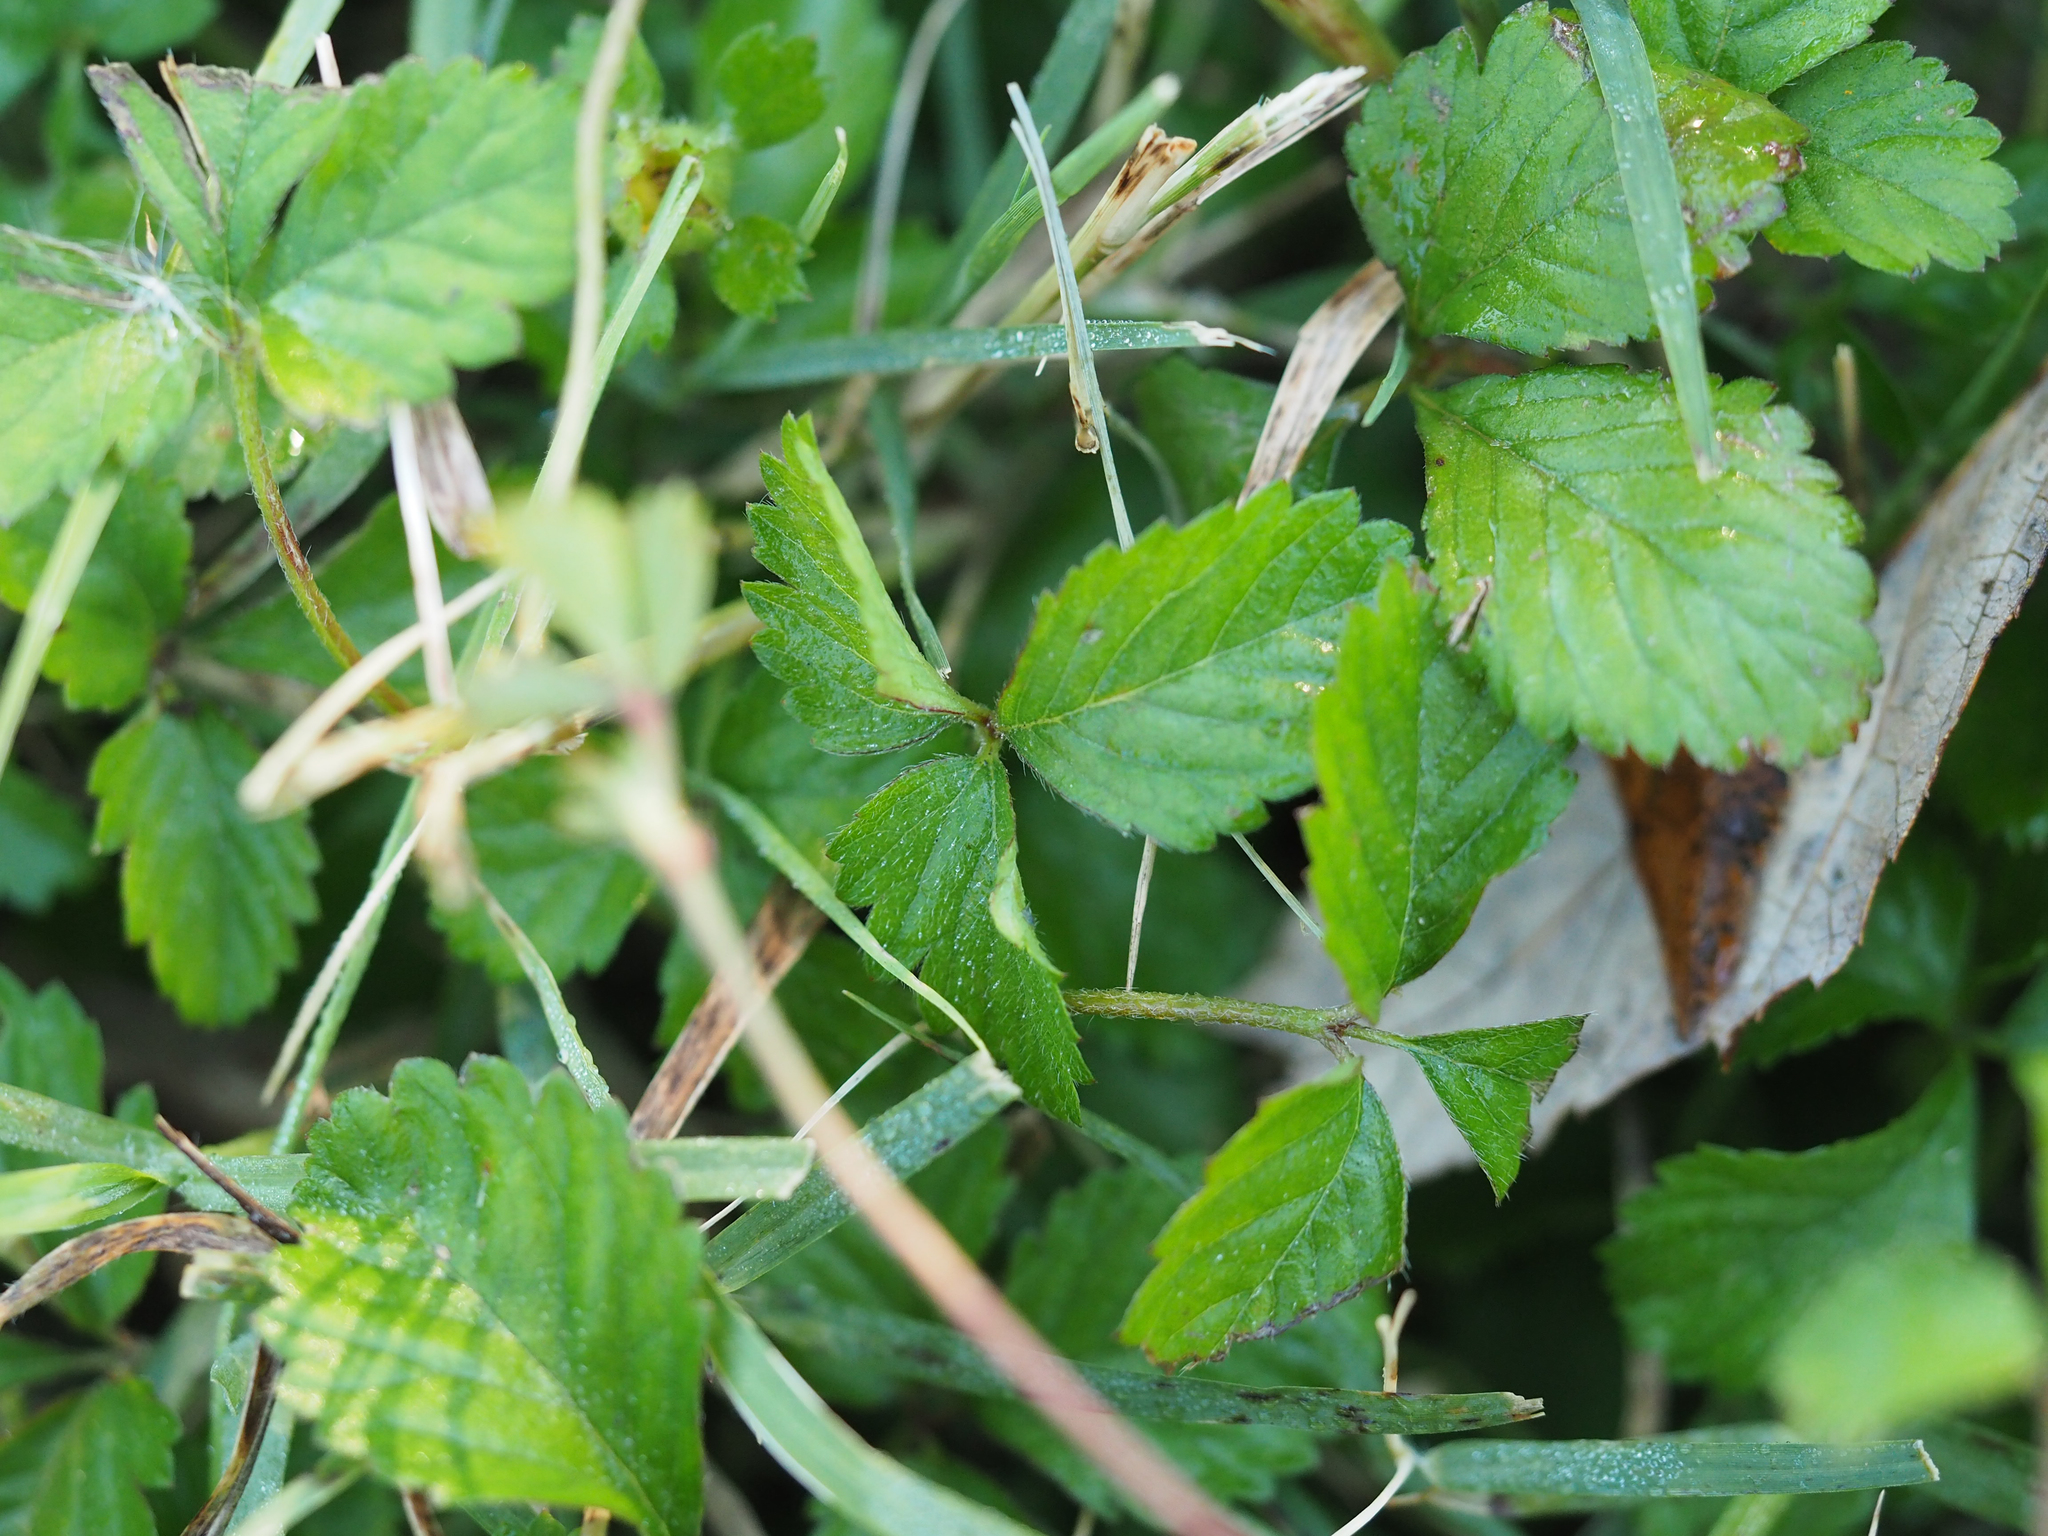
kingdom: Plantae
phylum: Tracheophyta
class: Magnoliopsida
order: Rosales
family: Rosaceae
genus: Potentilla
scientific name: Potentilla indica
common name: Yellow-flowered strawberry
